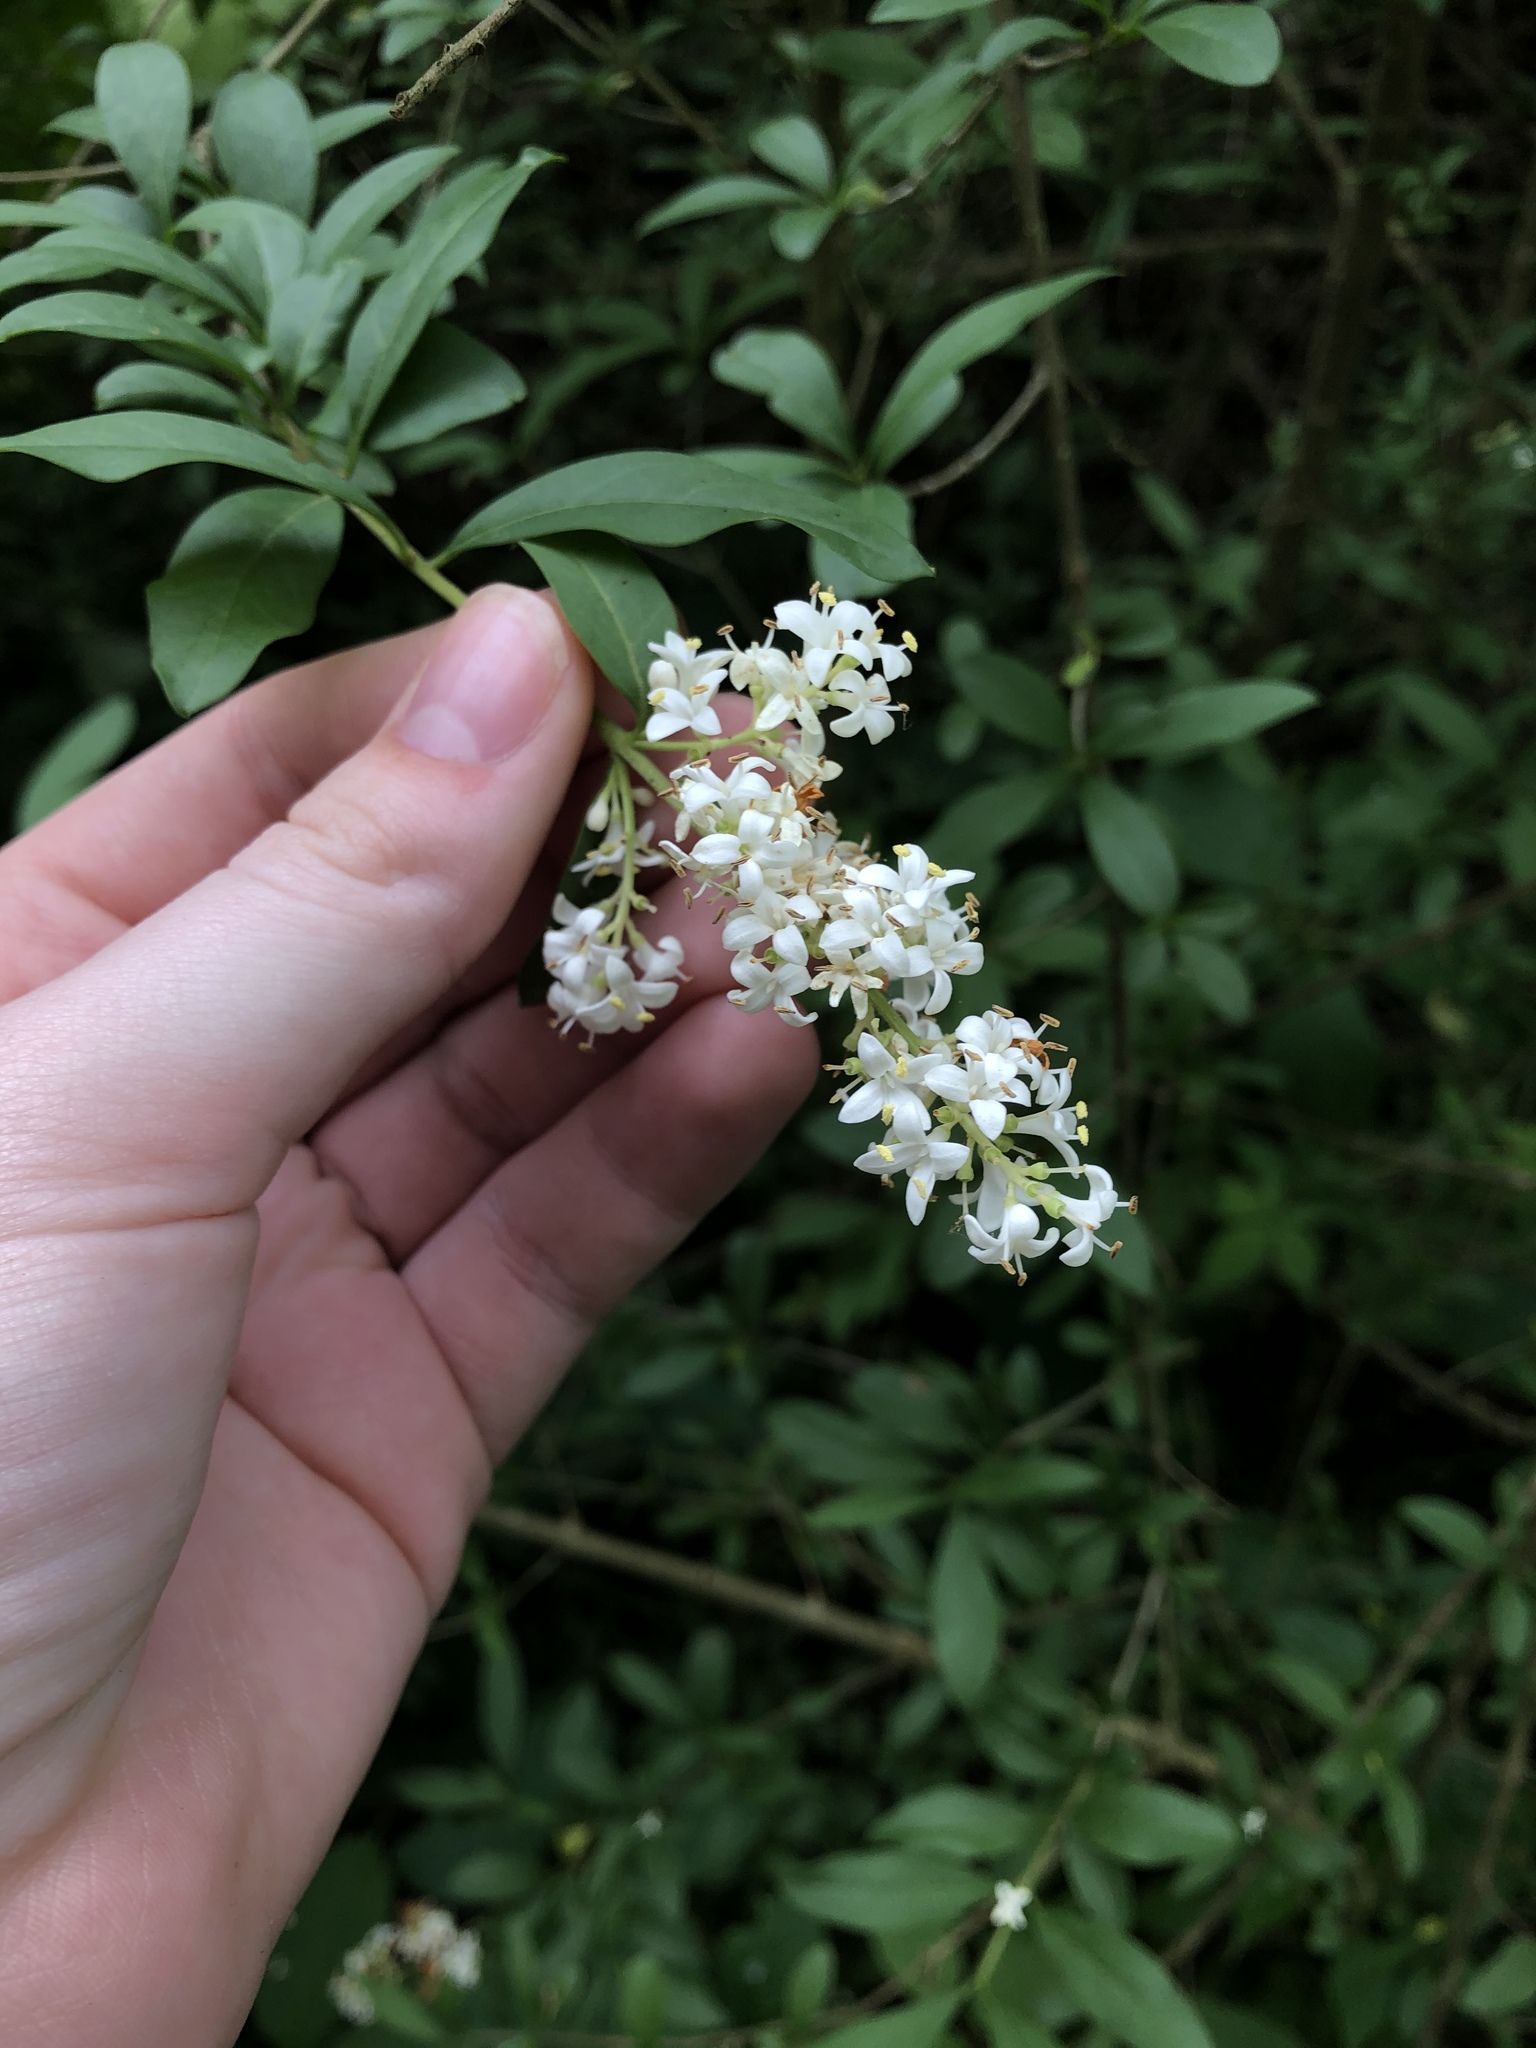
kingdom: Plantae
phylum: Tracheophyta
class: Magnoliopsida
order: Lamiales
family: Oleaceae
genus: Ligustrum
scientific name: Ligustrum vulgare
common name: Wild privet
